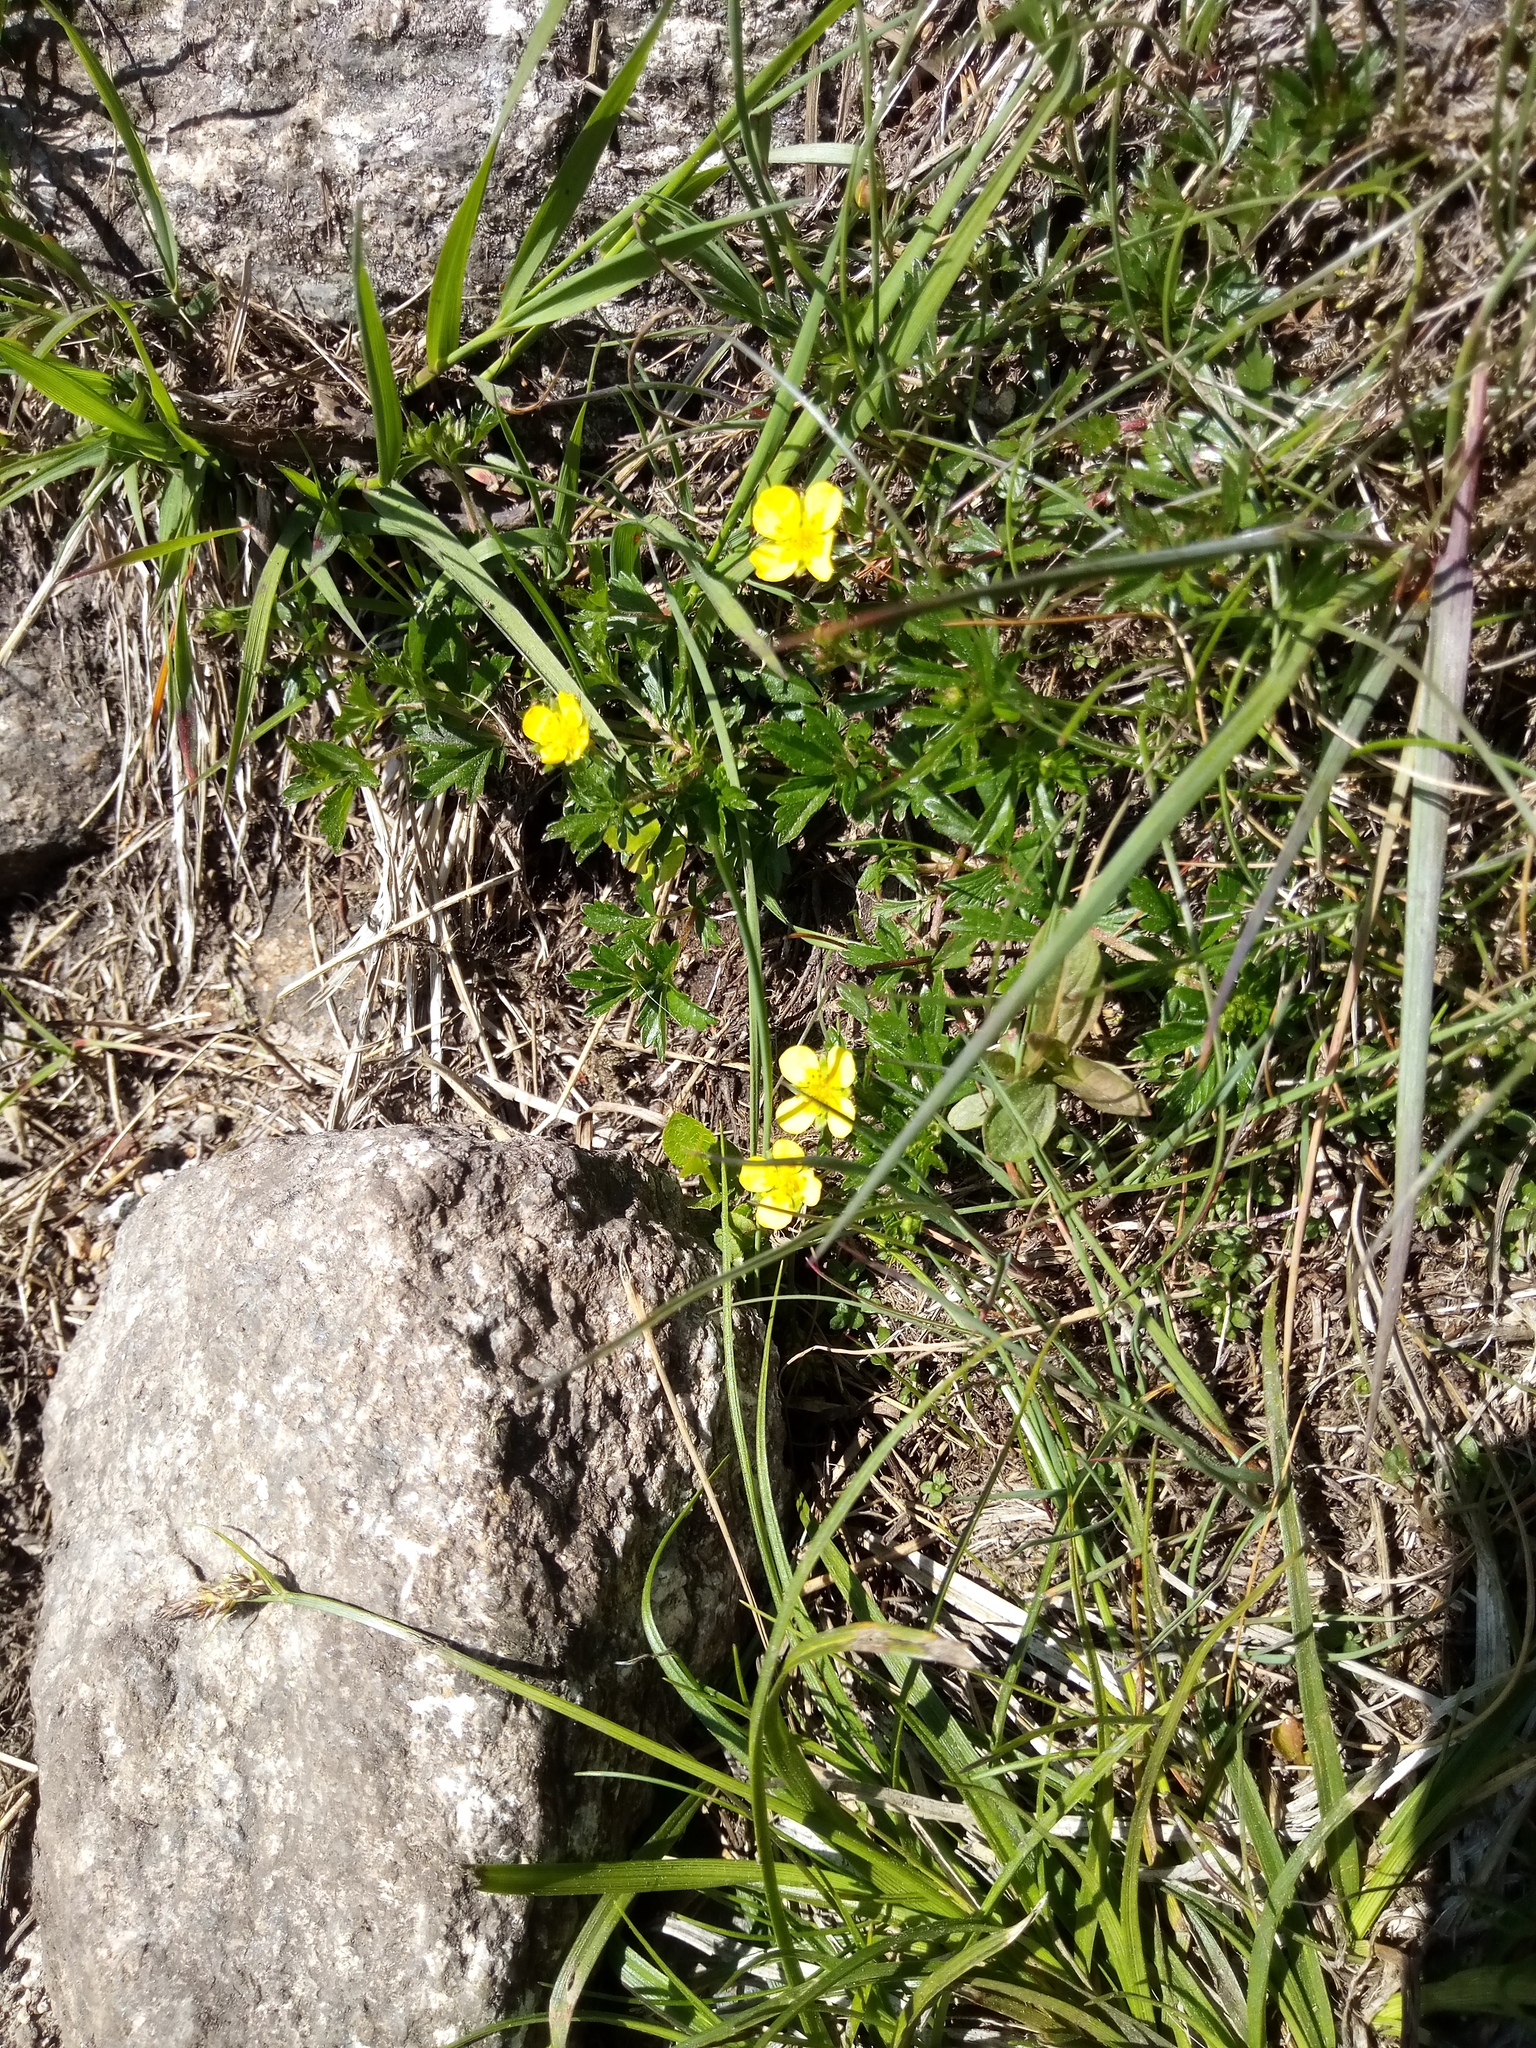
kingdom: Plantae
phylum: Tracheophyta
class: Magnoliopsida
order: Rosales
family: Rosaceae
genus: Potentilla
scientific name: Potentilla erecta
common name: Tormentil
